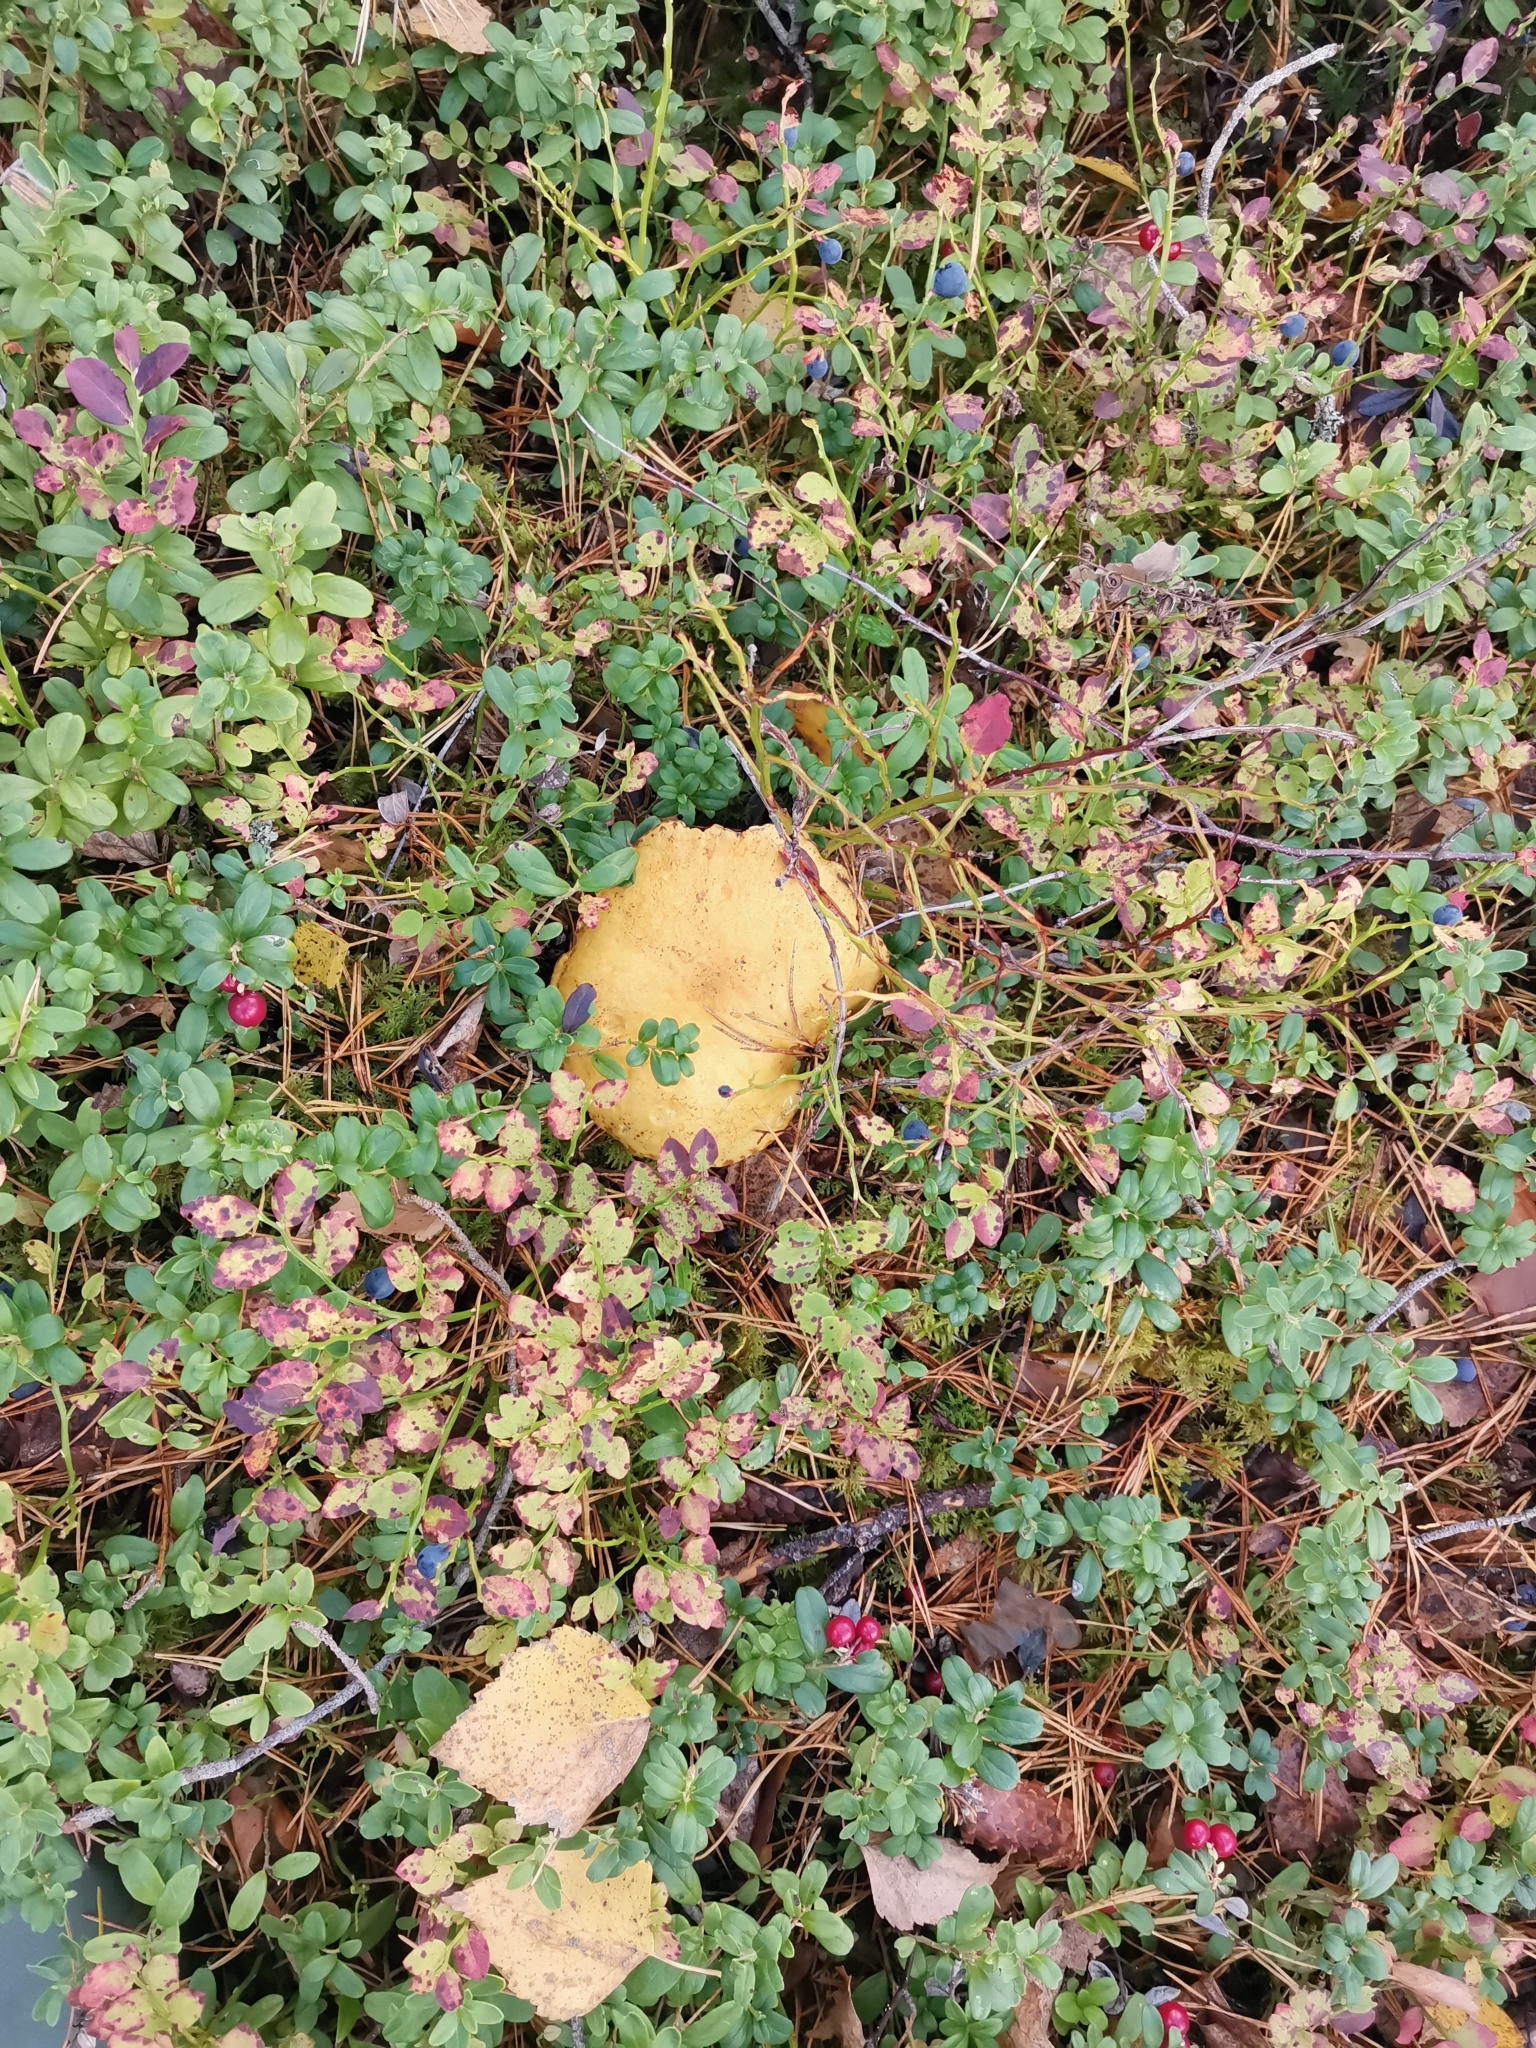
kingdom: Fungi
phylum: Basidiomycota
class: Agaricomycetes
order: Boletales
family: Suillaceae
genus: Suillus
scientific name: Suillus variegatus
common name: Velvet bolete
